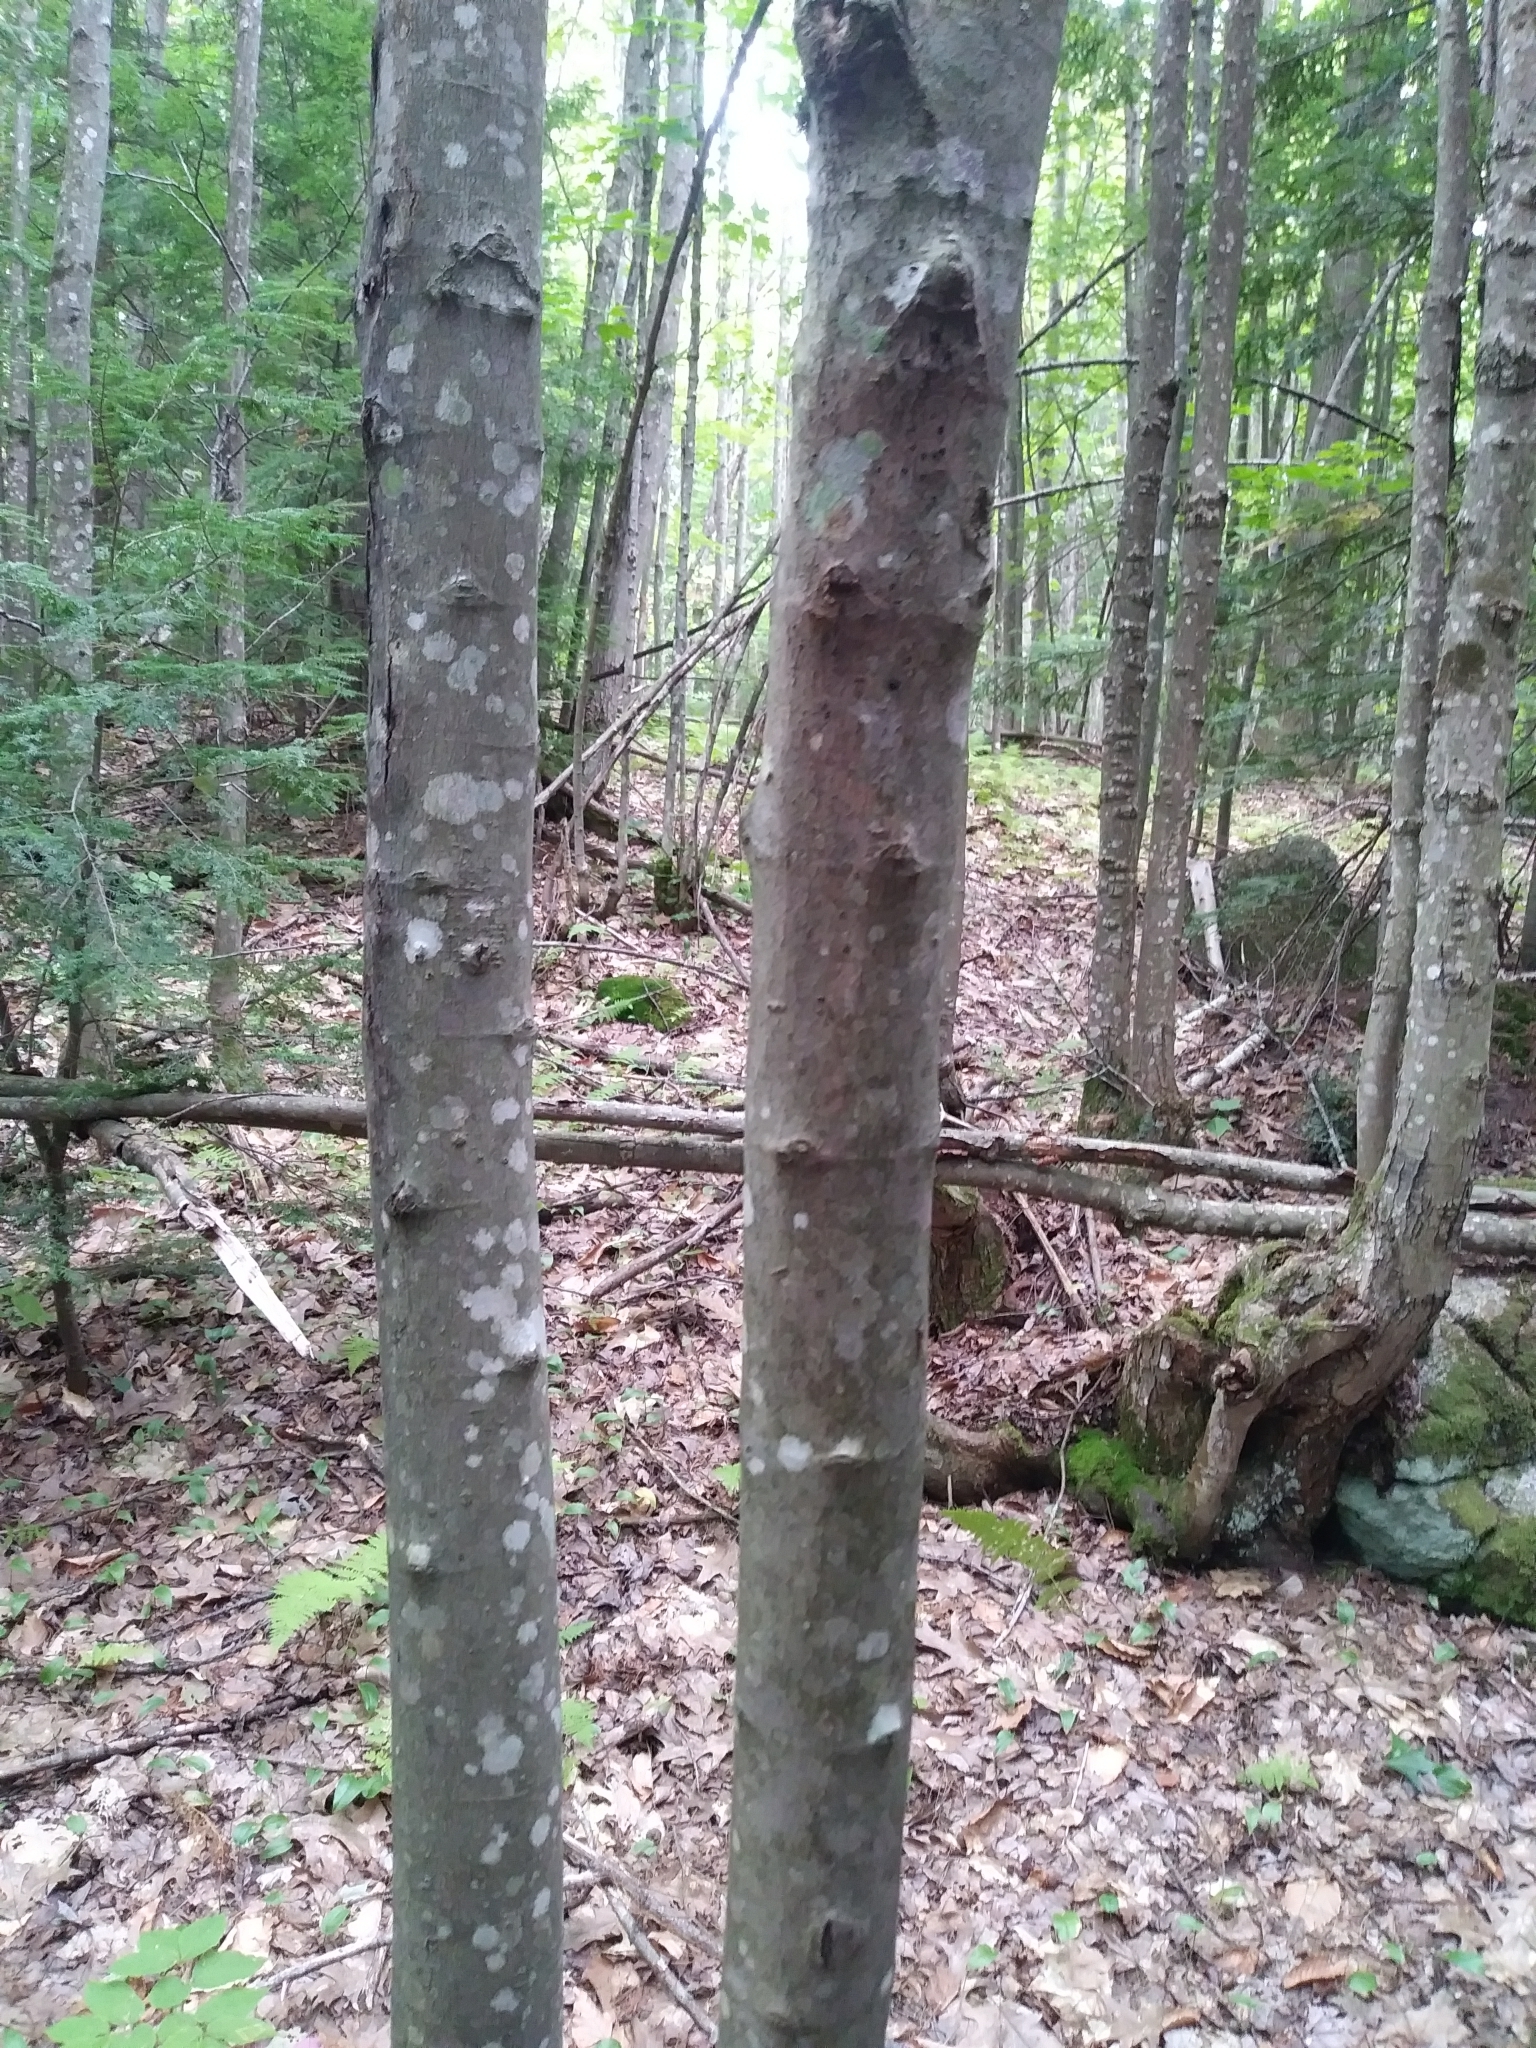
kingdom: Plantae
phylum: Tracheophyta
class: Magnoliopsida
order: Sapindales
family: Sapindaceae
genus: Acer
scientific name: Acer rubrum
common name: Red maple
